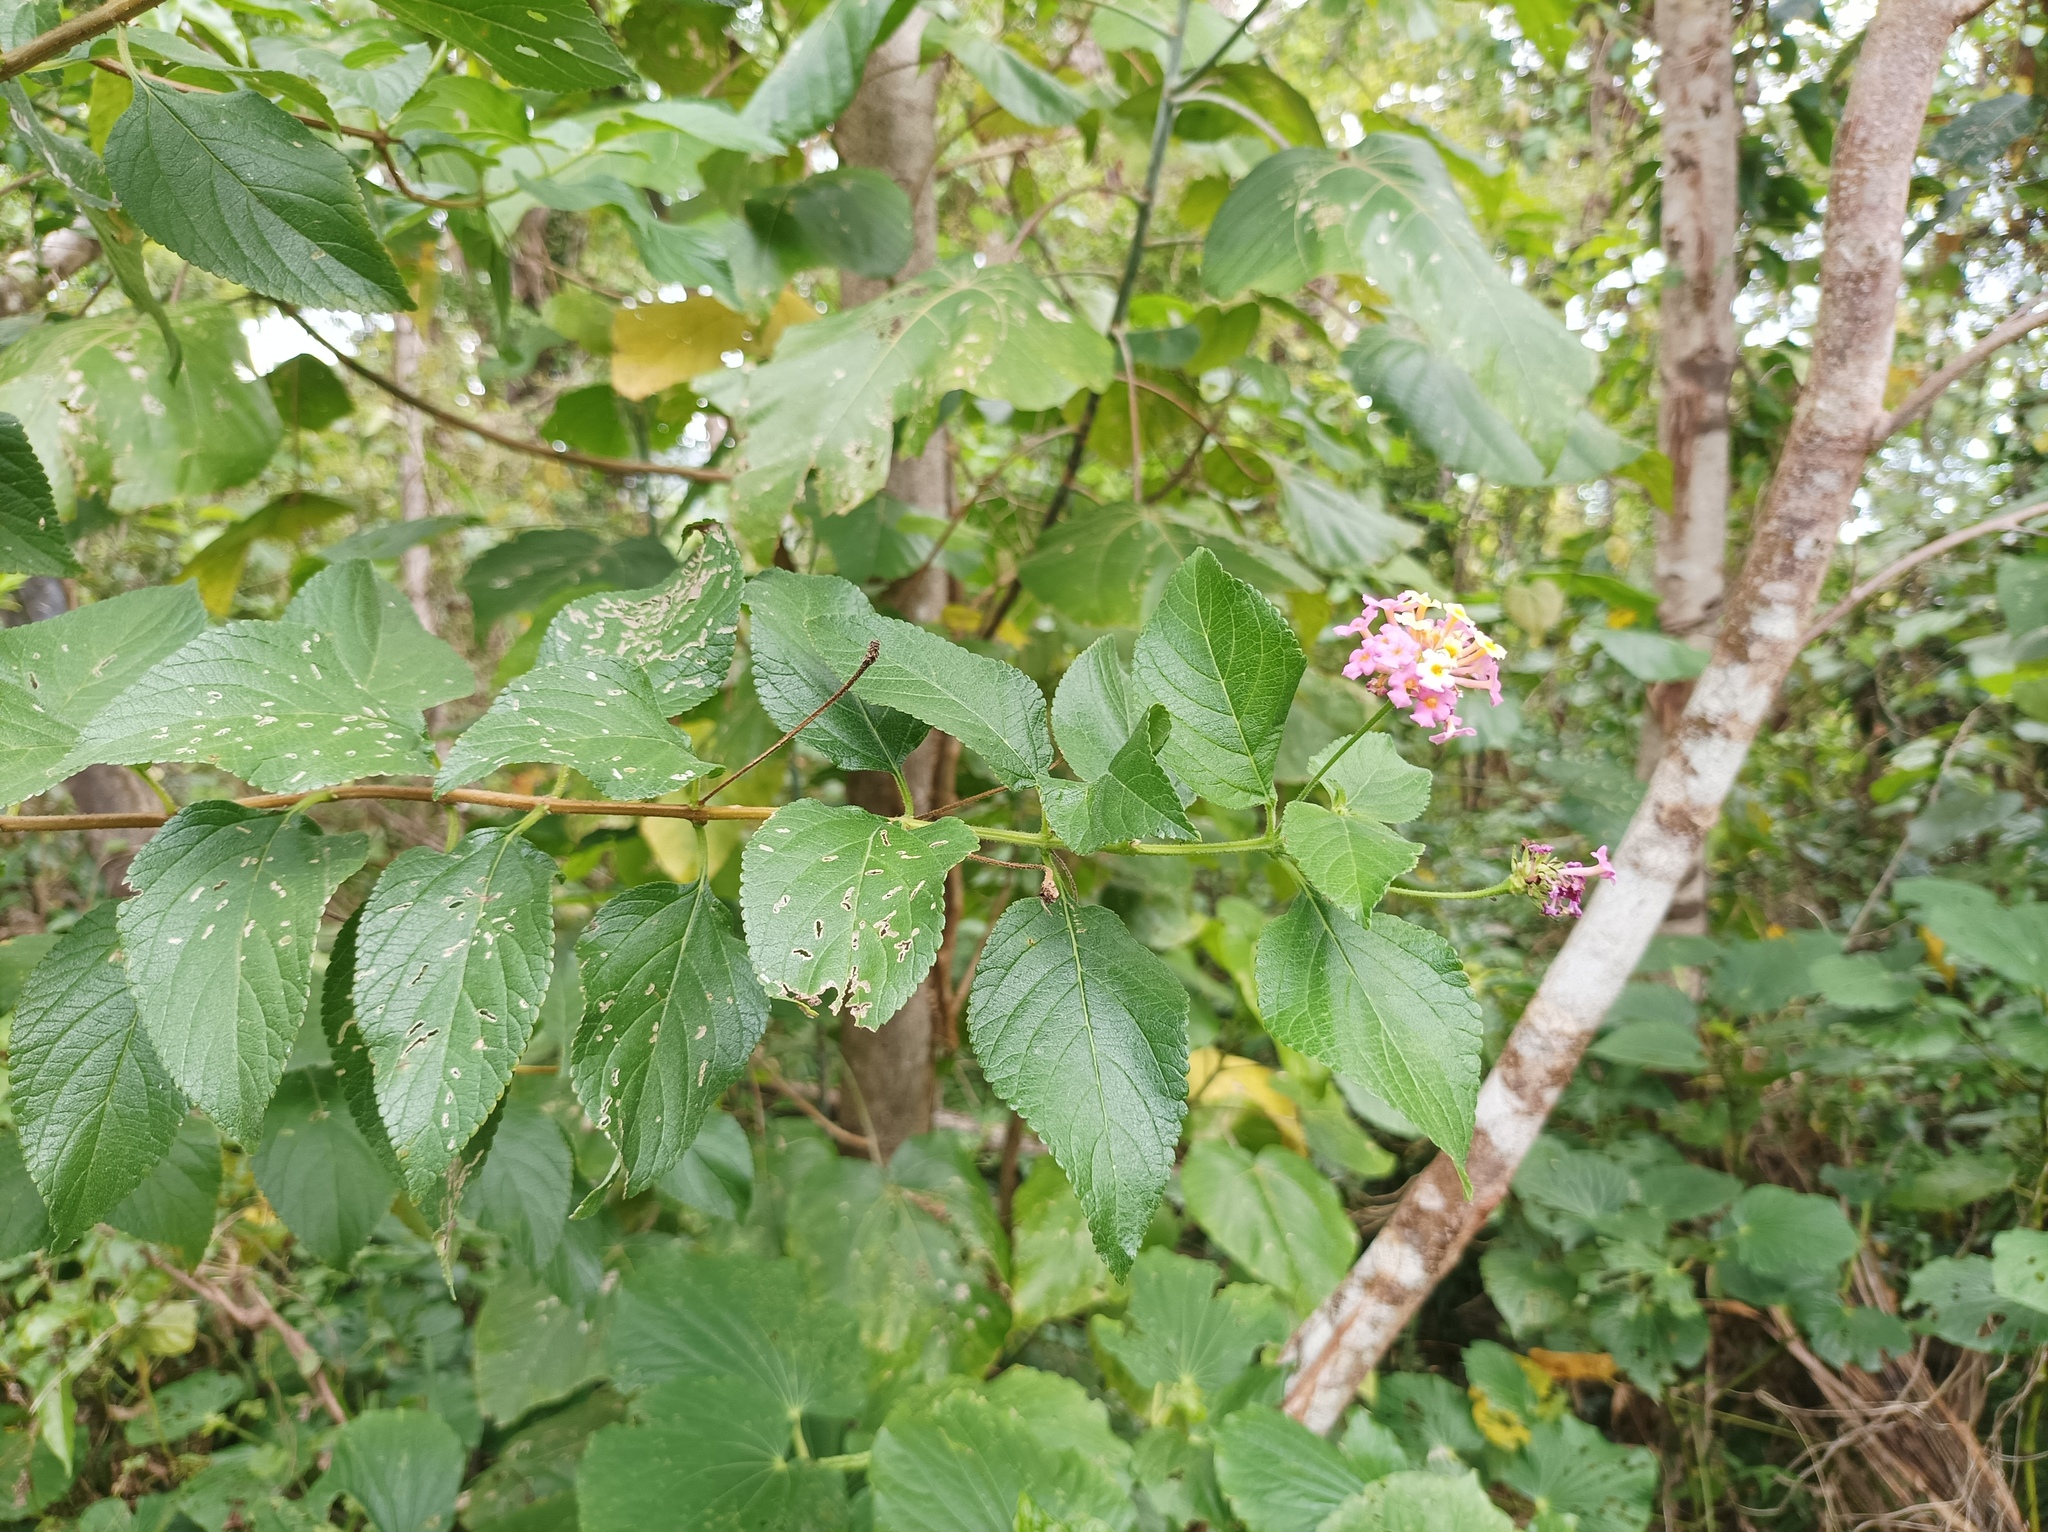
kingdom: Plantae
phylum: Tracheophyta
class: Magnoliopsida
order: Lamiales
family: Verbenaceae
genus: Lantana
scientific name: Lantana camara
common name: Lantana
